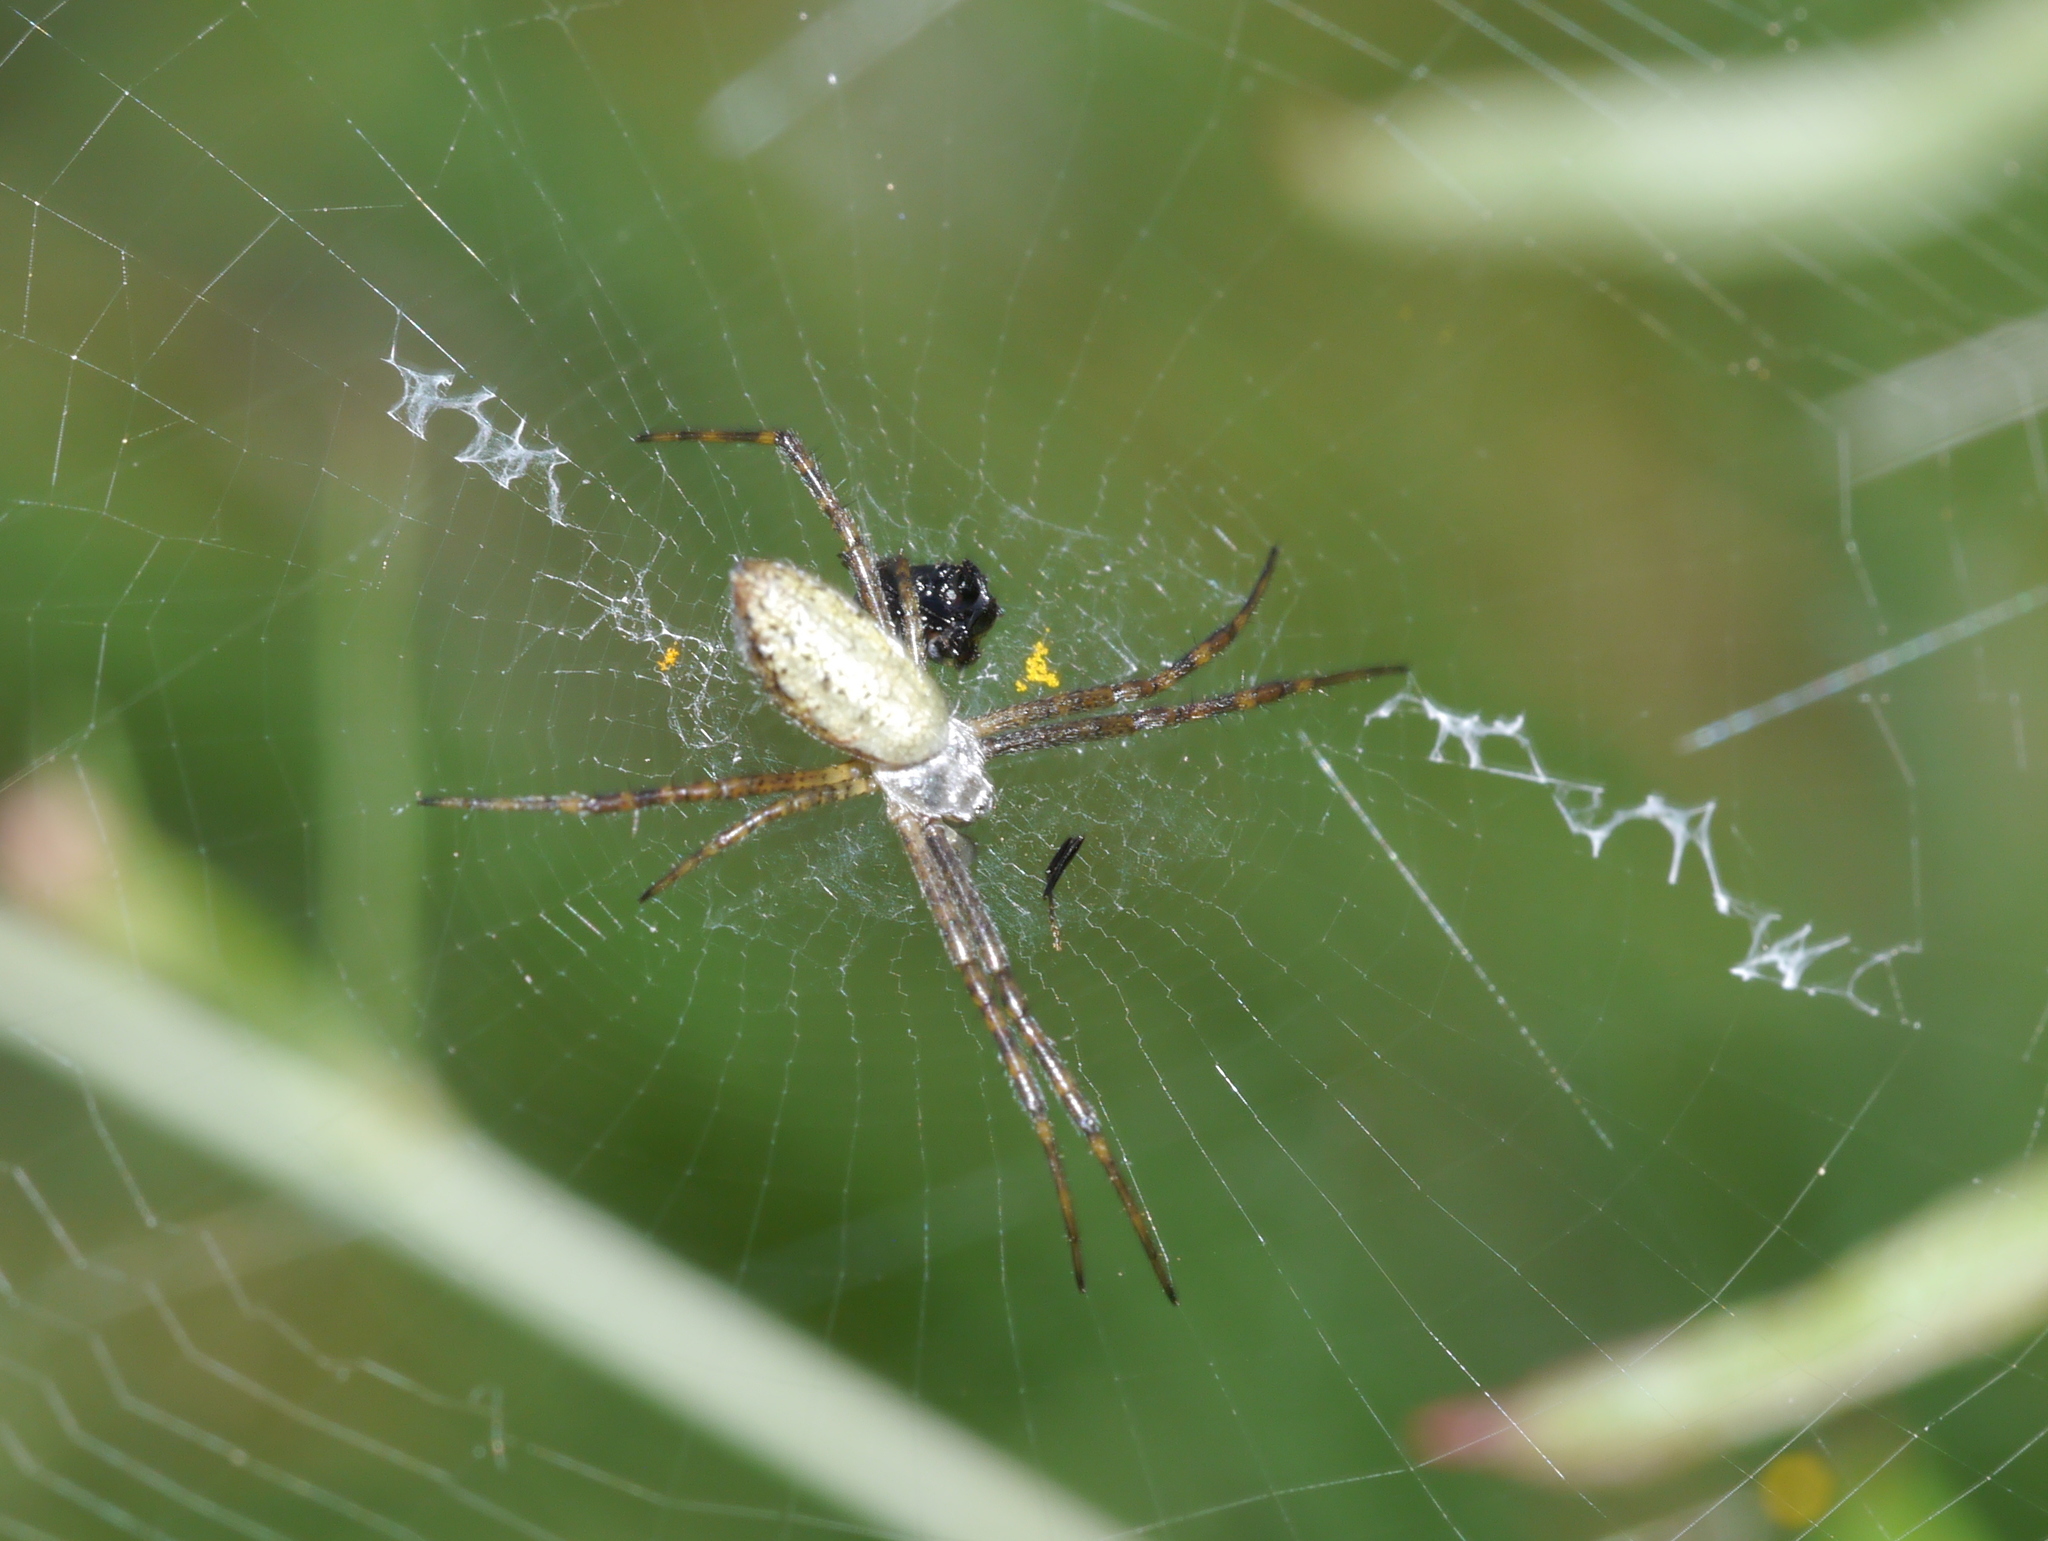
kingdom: Animalia
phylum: Arthropoda
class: Arachnida
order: Araneae
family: Araneidae
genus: Argiope
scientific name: Argiope trifasciata
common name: Banded garden spider
